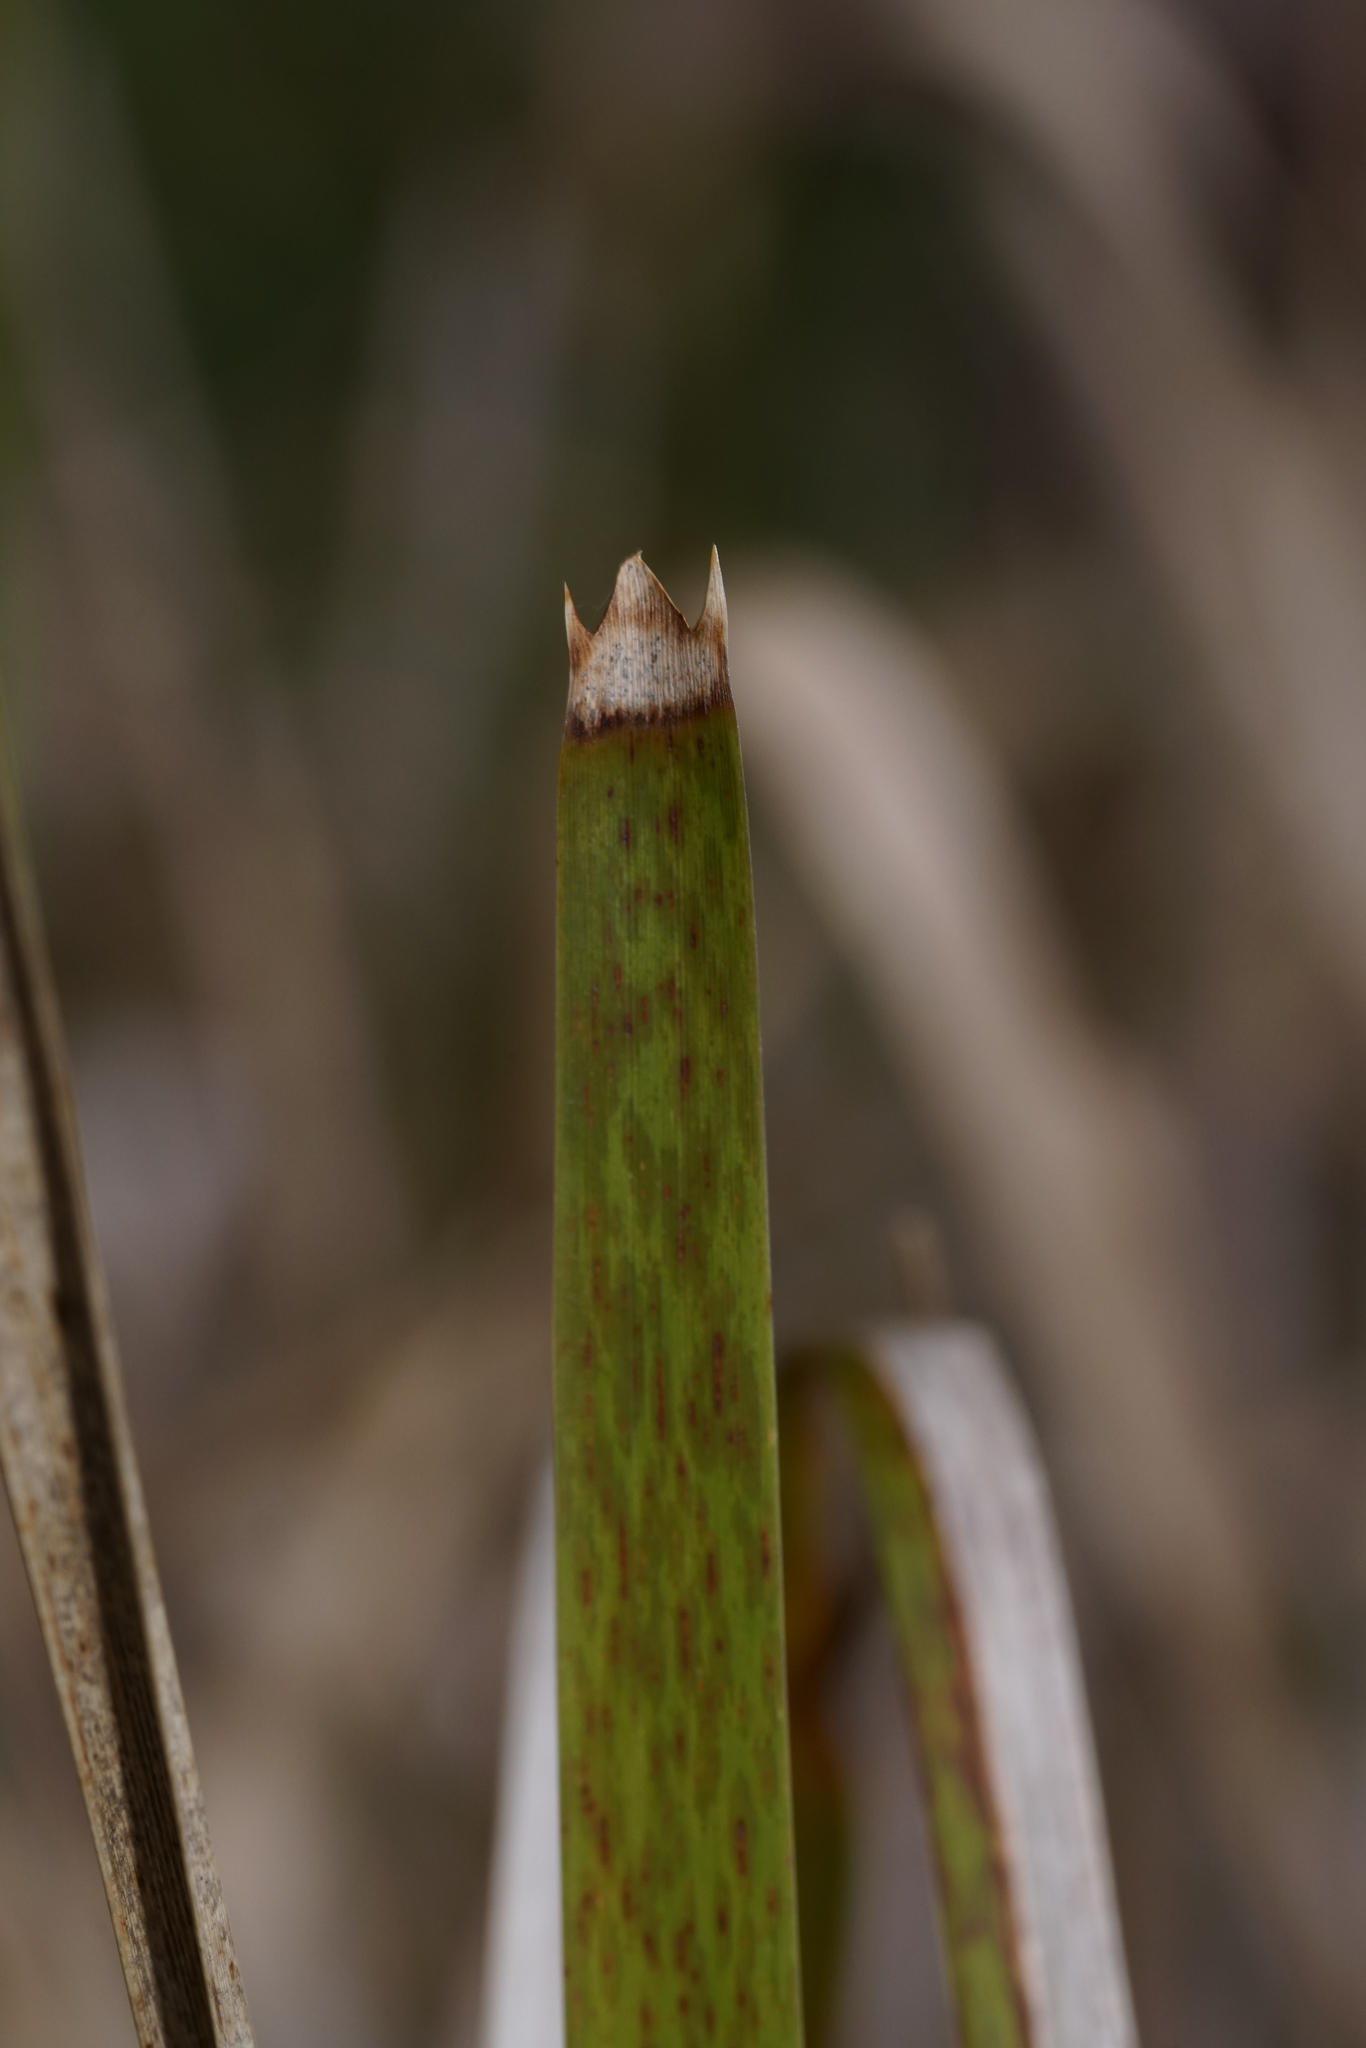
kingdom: Plantae
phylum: Tracheophyta
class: Liliopsida
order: Asparagales
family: Asparagaceae
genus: Lomandra
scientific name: Lomandra longifolia
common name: Longleaf mat-rush
